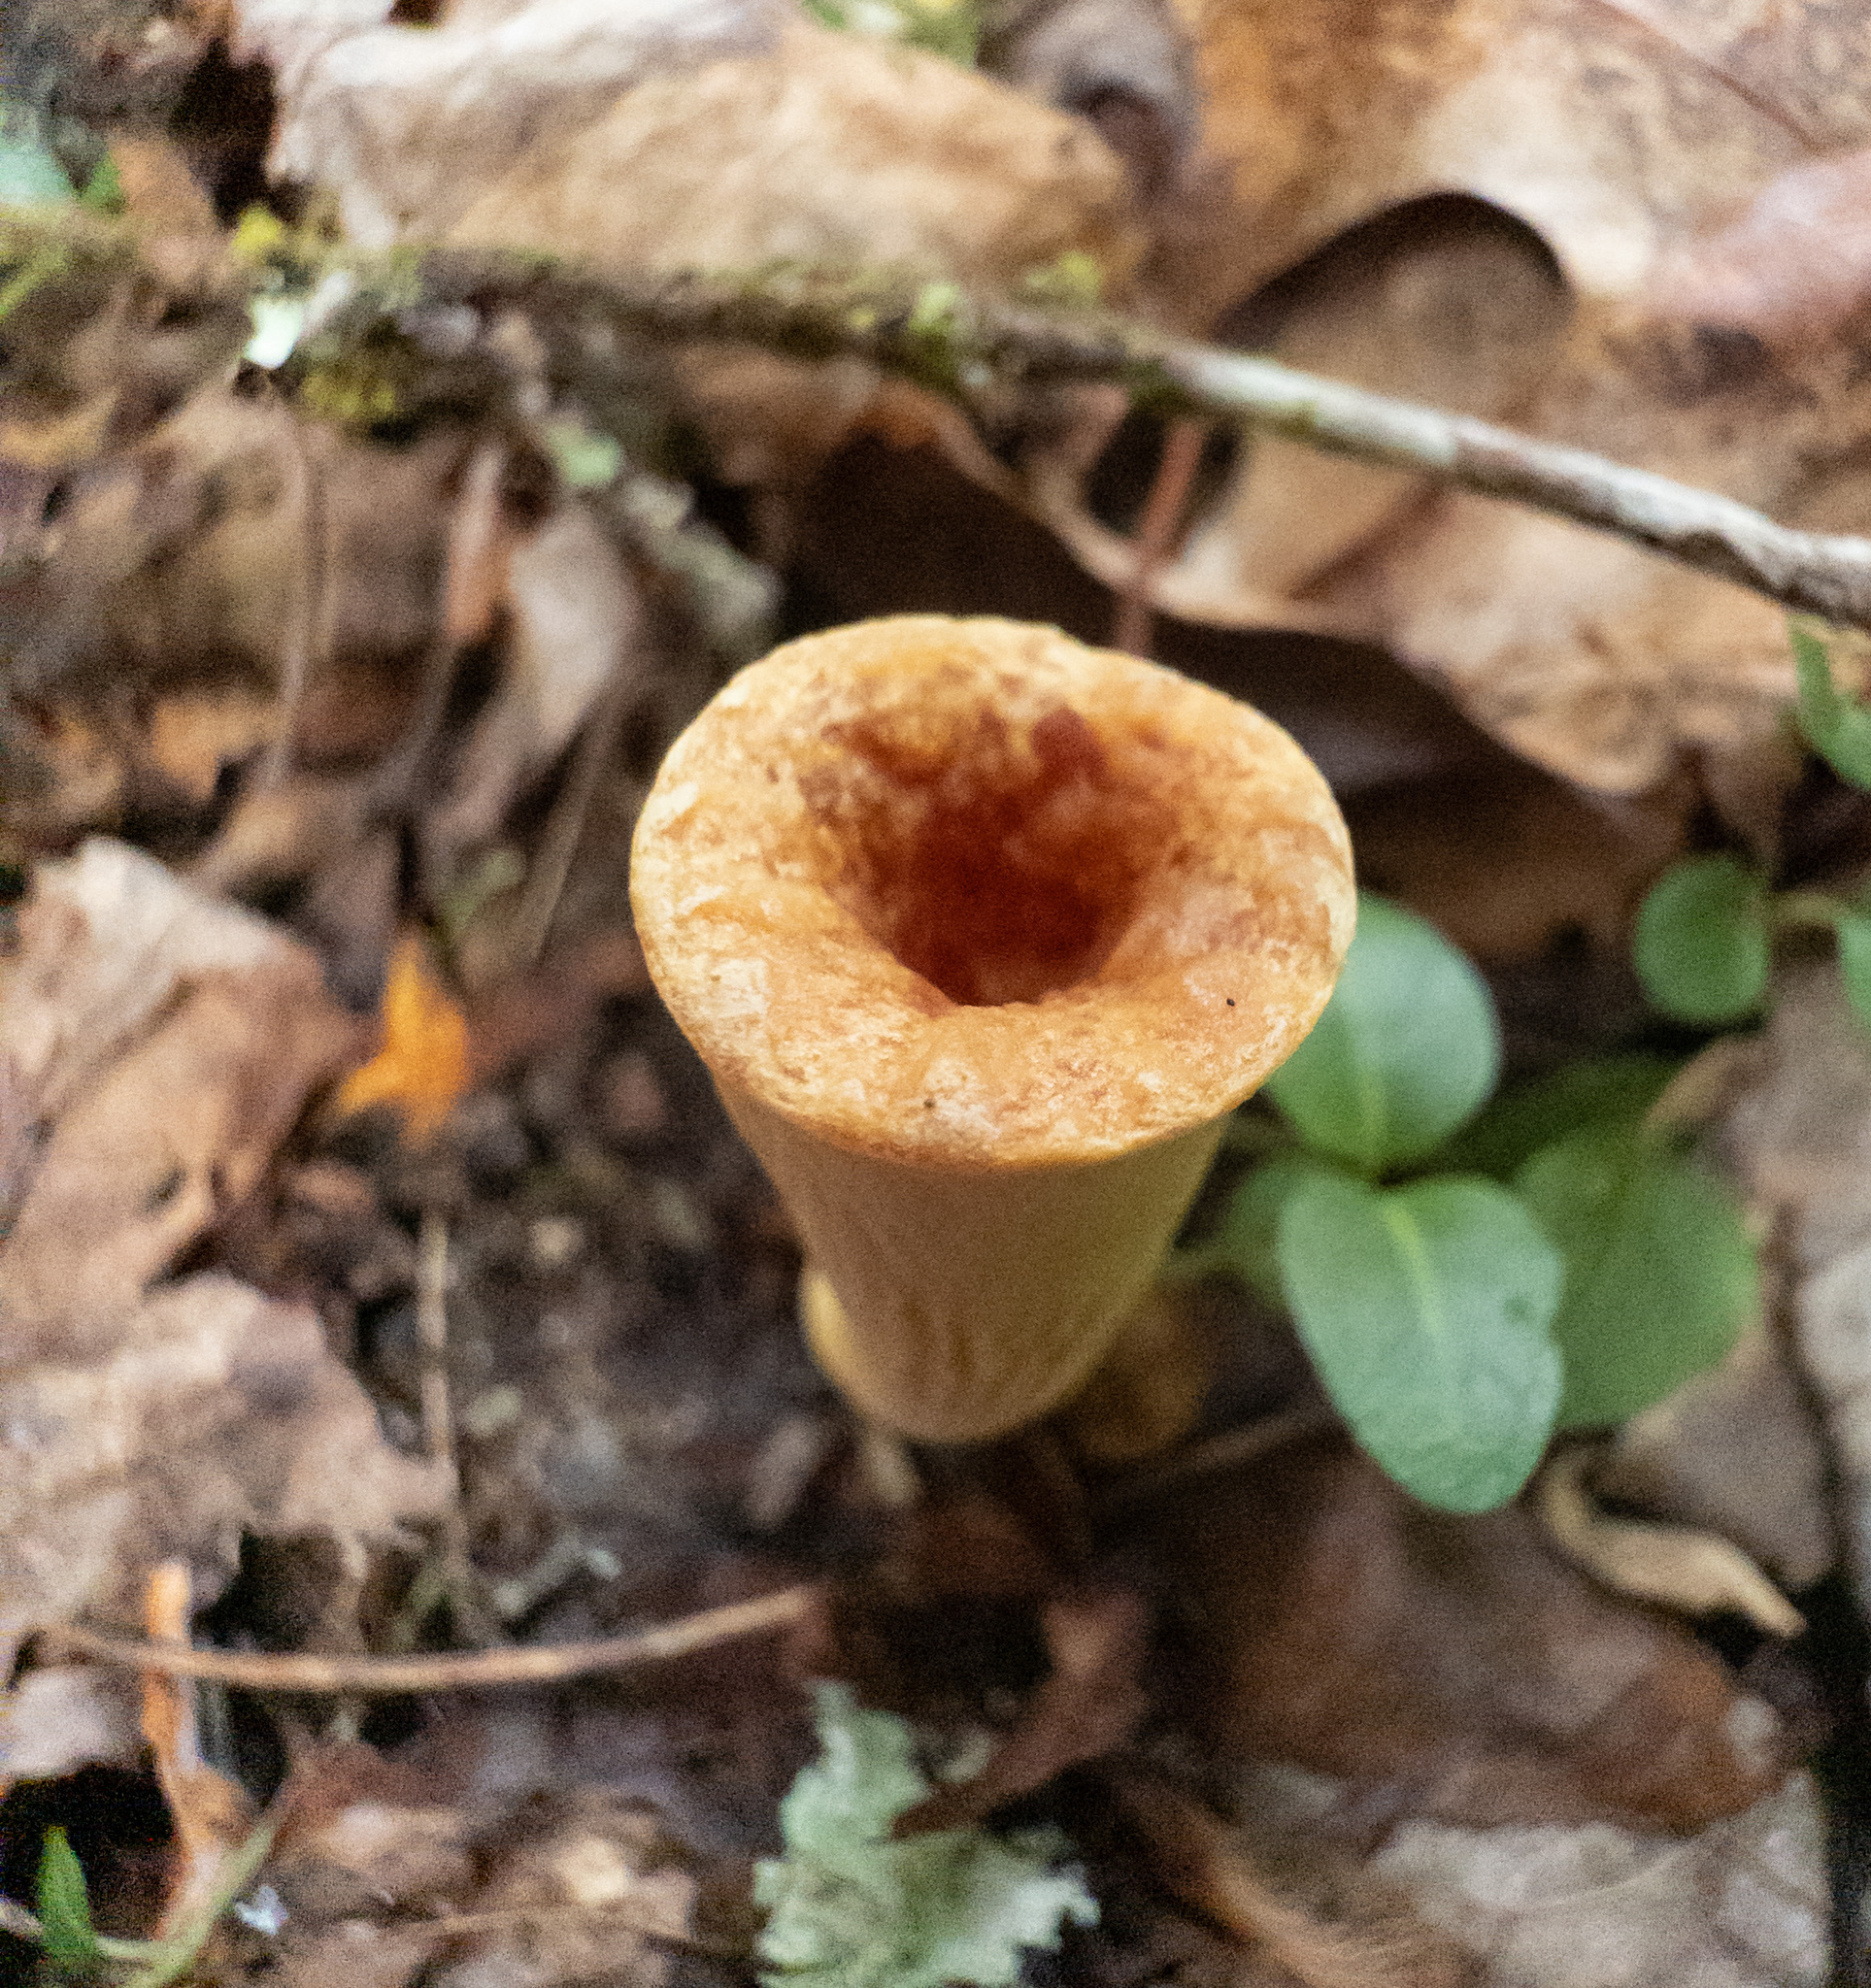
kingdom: Fungi
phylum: Basidiomycota
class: Agaricomycetes
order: Gomphales
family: Gomphaceae
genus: Turbinellus
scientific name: Turbinellus floccosus
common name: Scaly chanterelle
